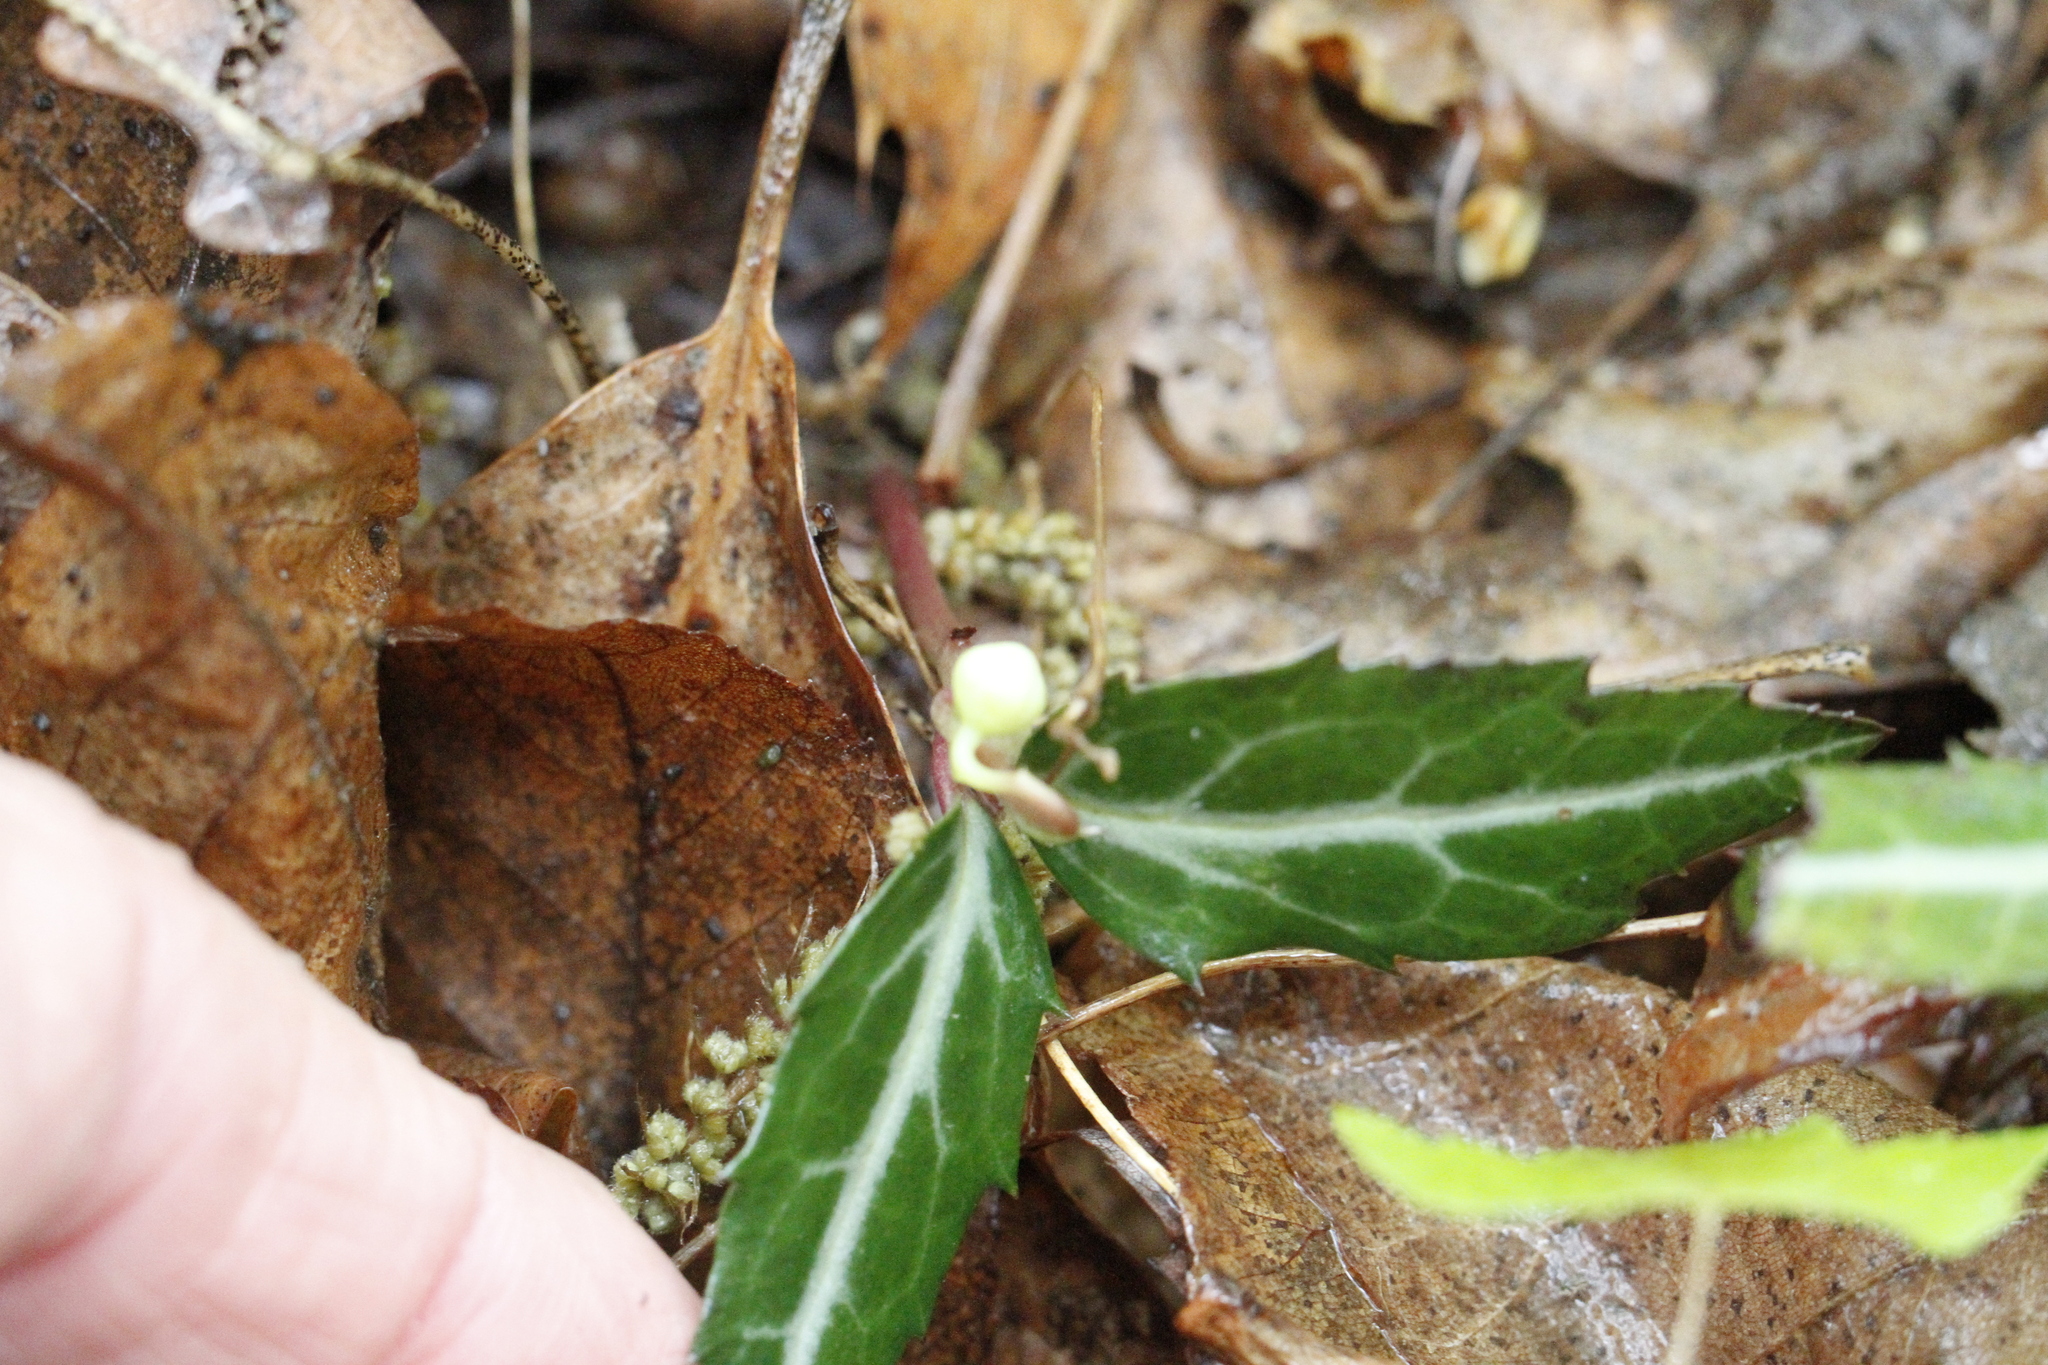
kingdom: Plantae
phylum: Tracheophyta
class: Magnoliopsida
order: Ericales
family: Ericaceae
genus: Chimaphila
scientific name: Chimaphila maculata
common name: Spotted pipsissewa
